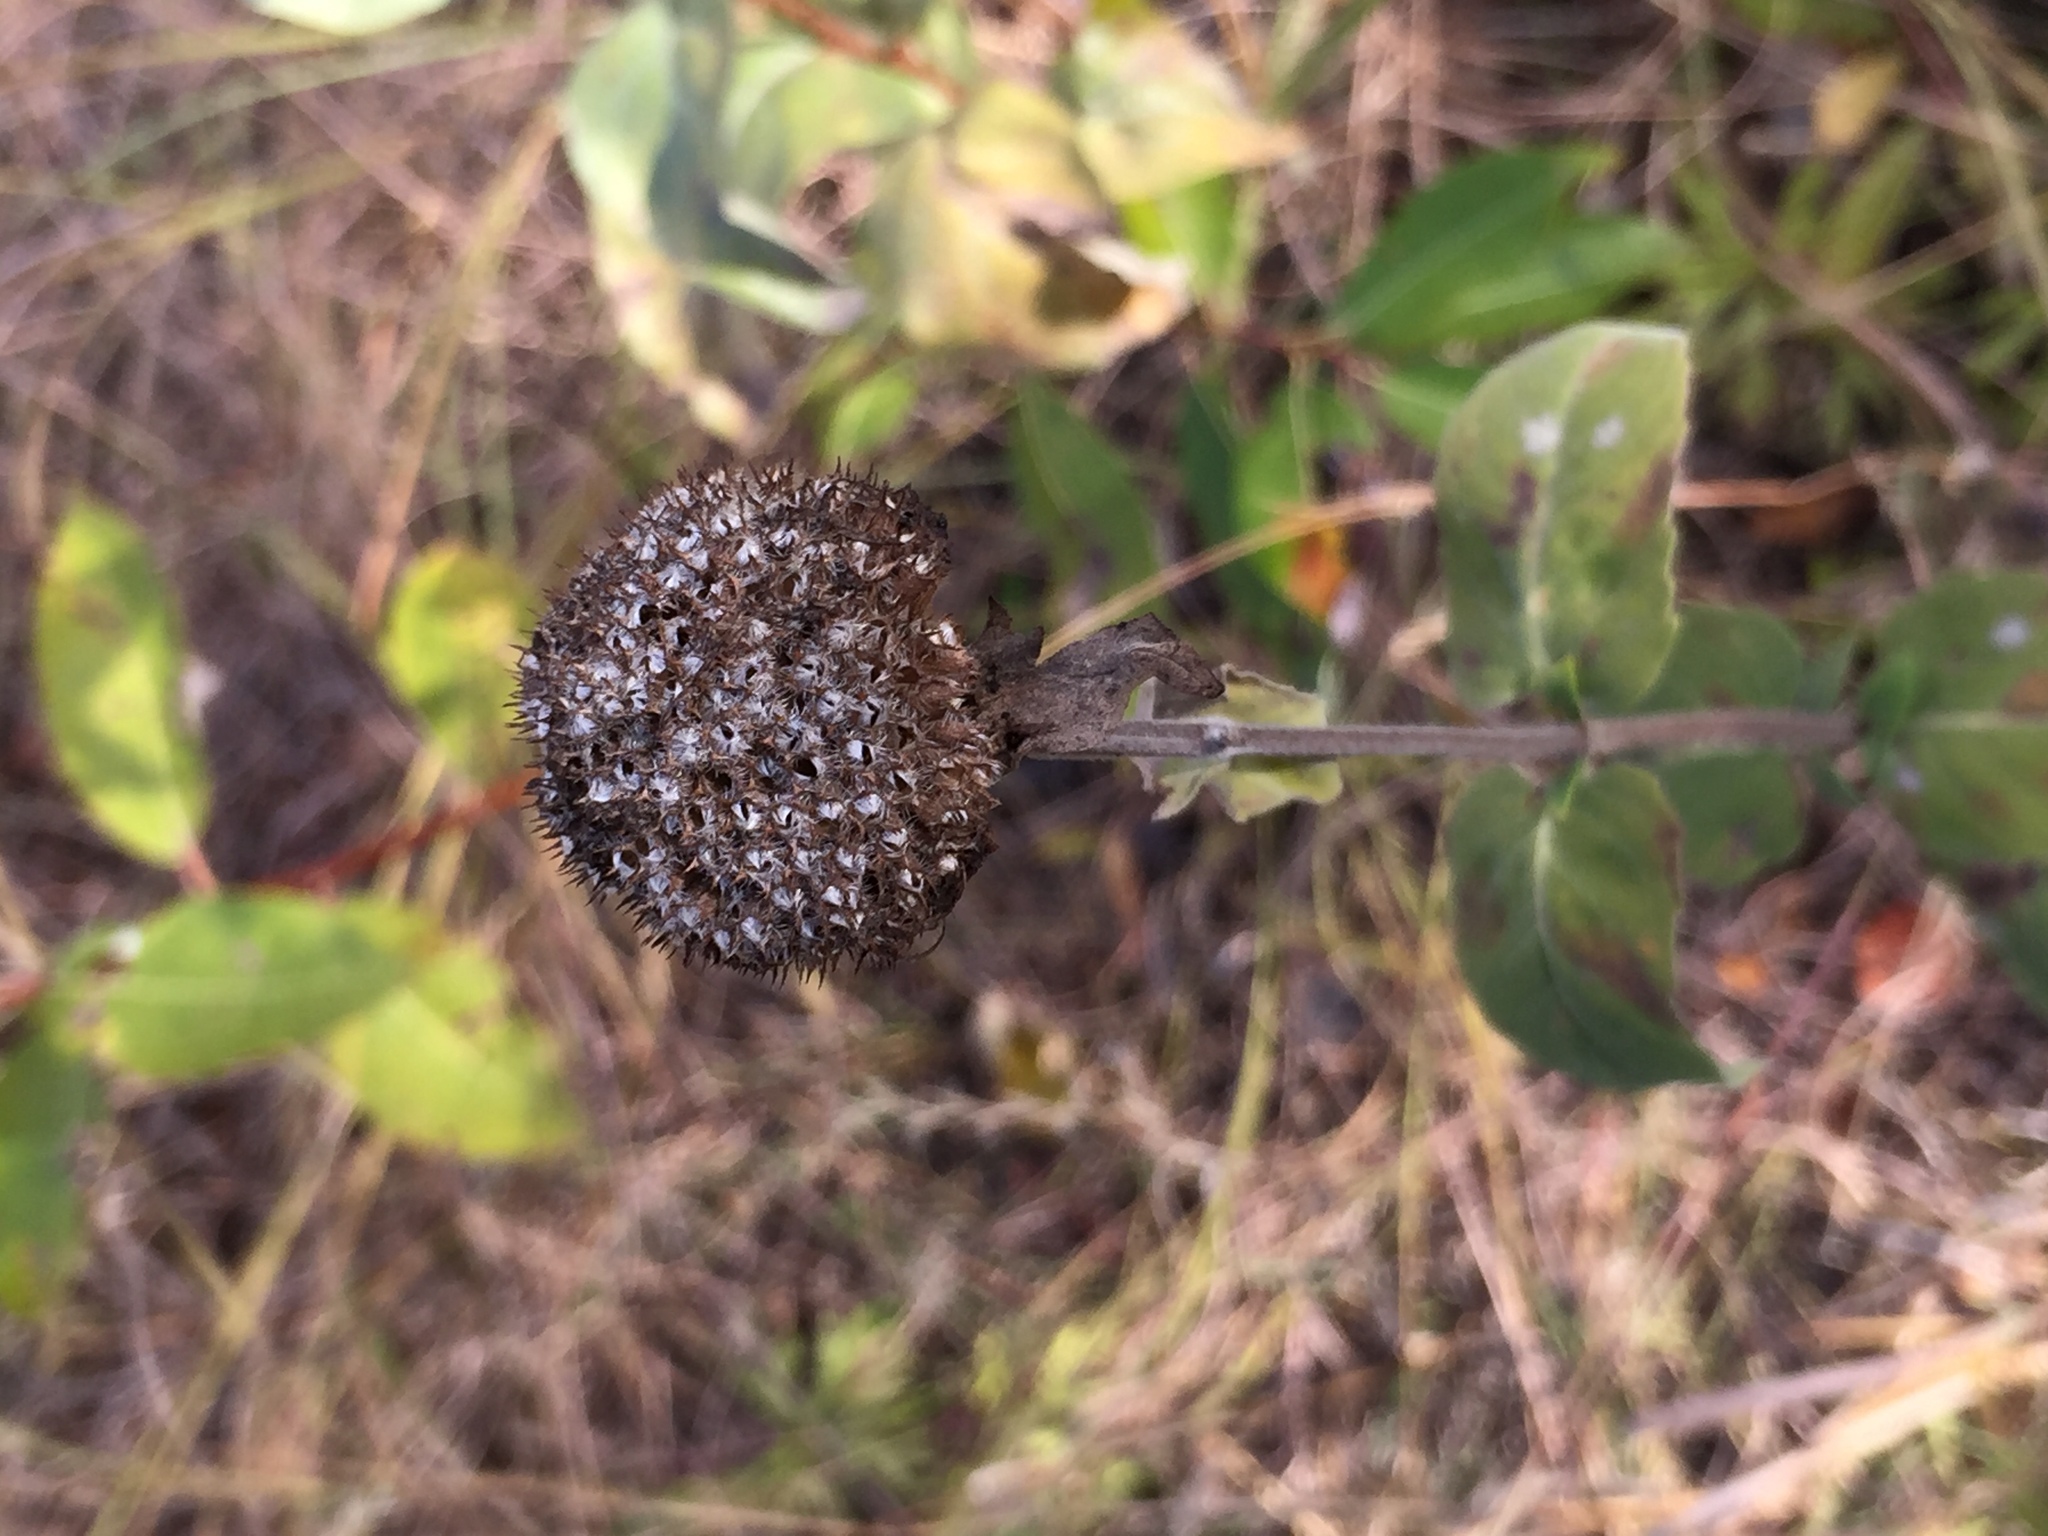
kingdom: Plantae
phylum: Tracheophyta
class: Magnoliopsida
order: Lamiales
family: Lamiaceae
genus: Monarda
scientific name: Monarda fistulosa
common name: Purple beebalm
